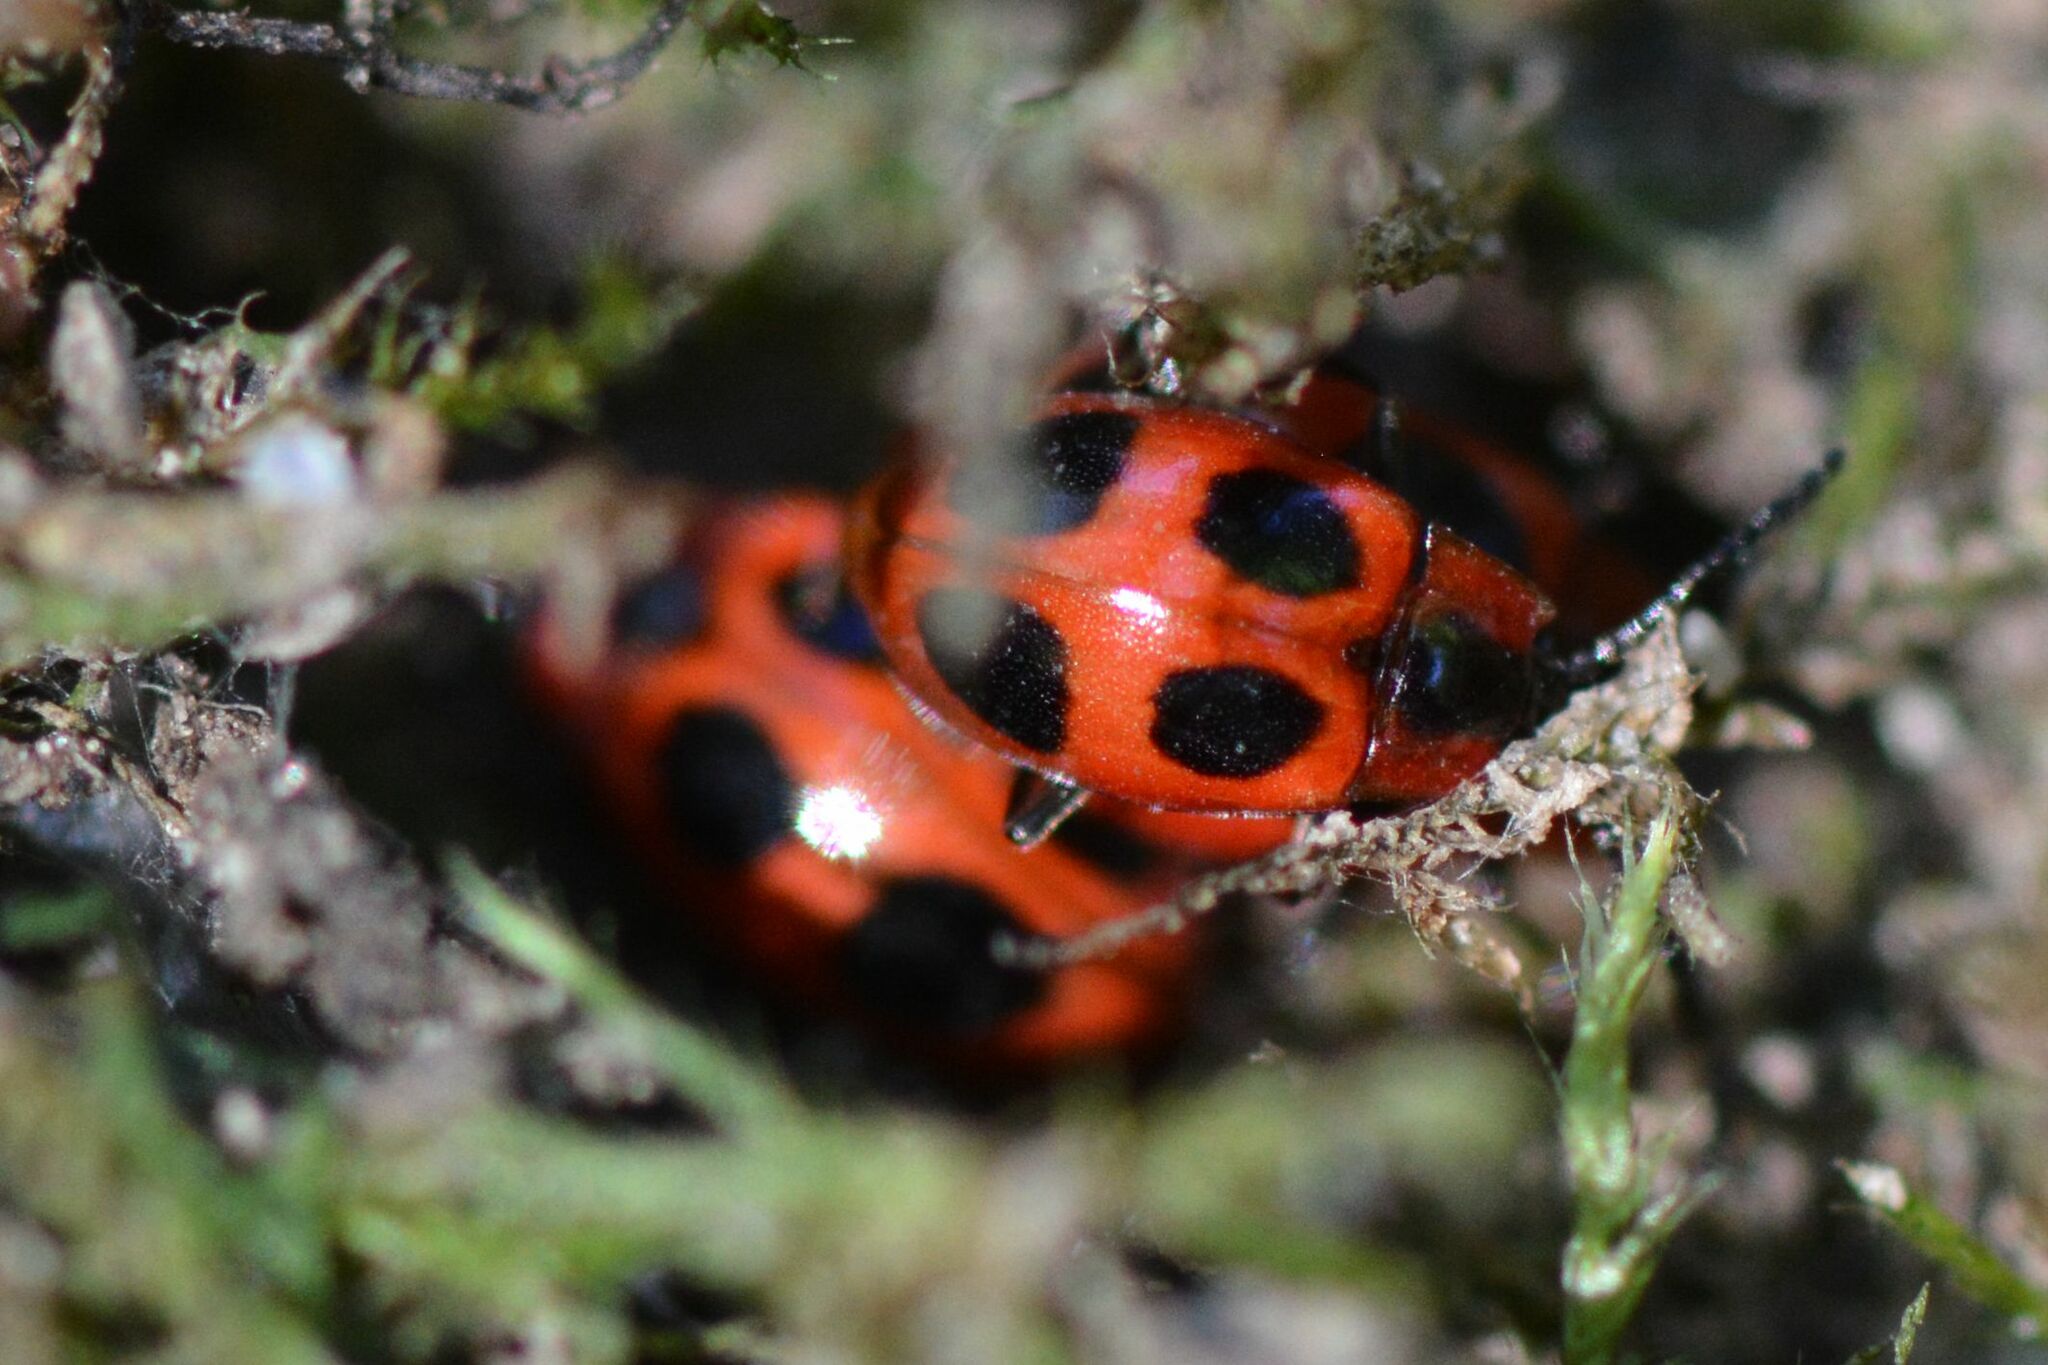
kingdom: Animalia
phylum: Arthropoda
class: Insecta
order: Coleoptera
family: Endomychidae
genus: Endomychus
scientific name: Endomychus coccineus
